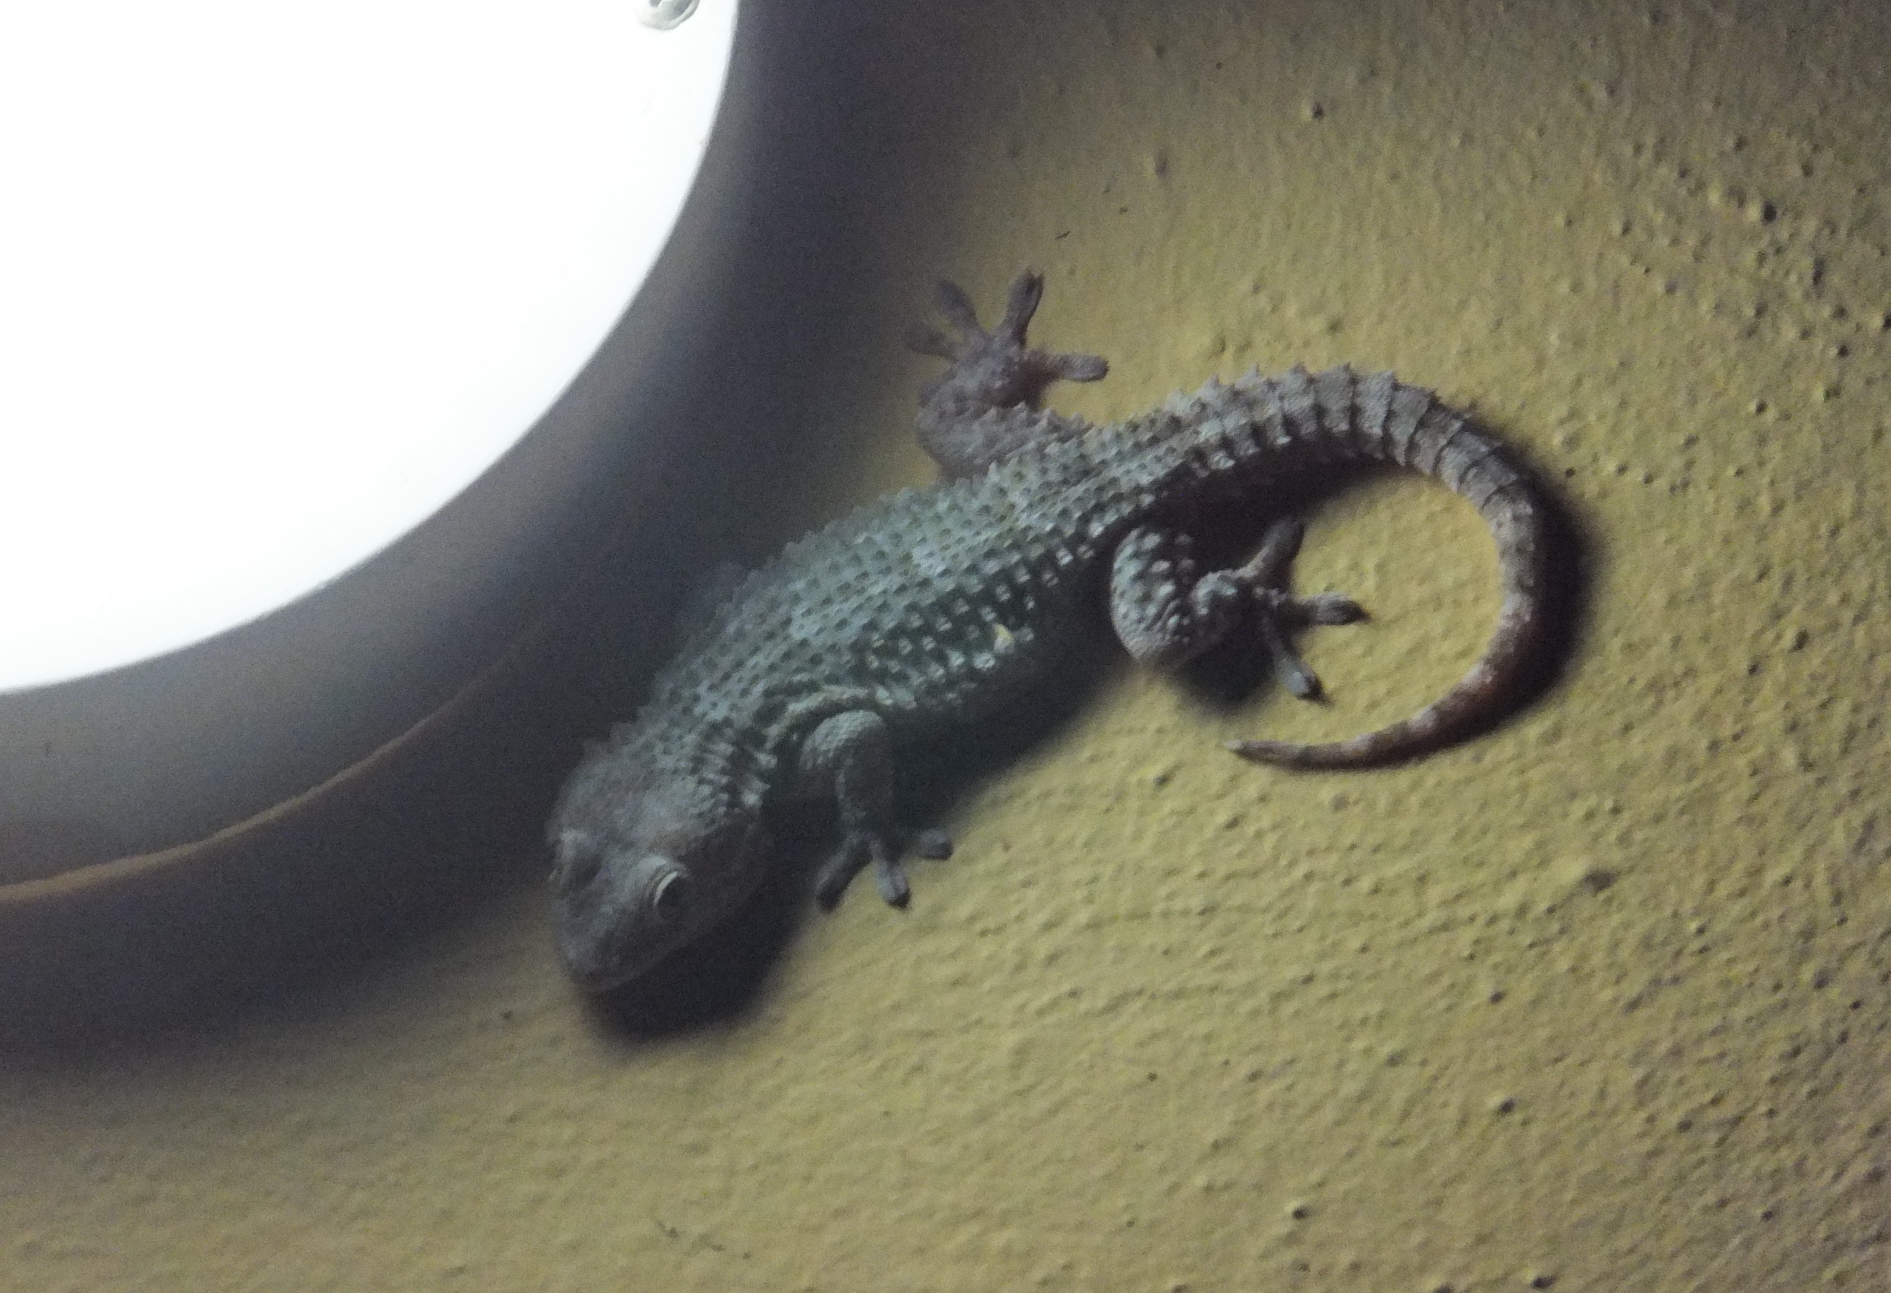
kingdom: Animalia
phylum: Chordata
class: Squamata
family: Phyllodactylidae
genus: Tarentola
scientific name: Tarentola mauritanica
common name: Moorish gecko
